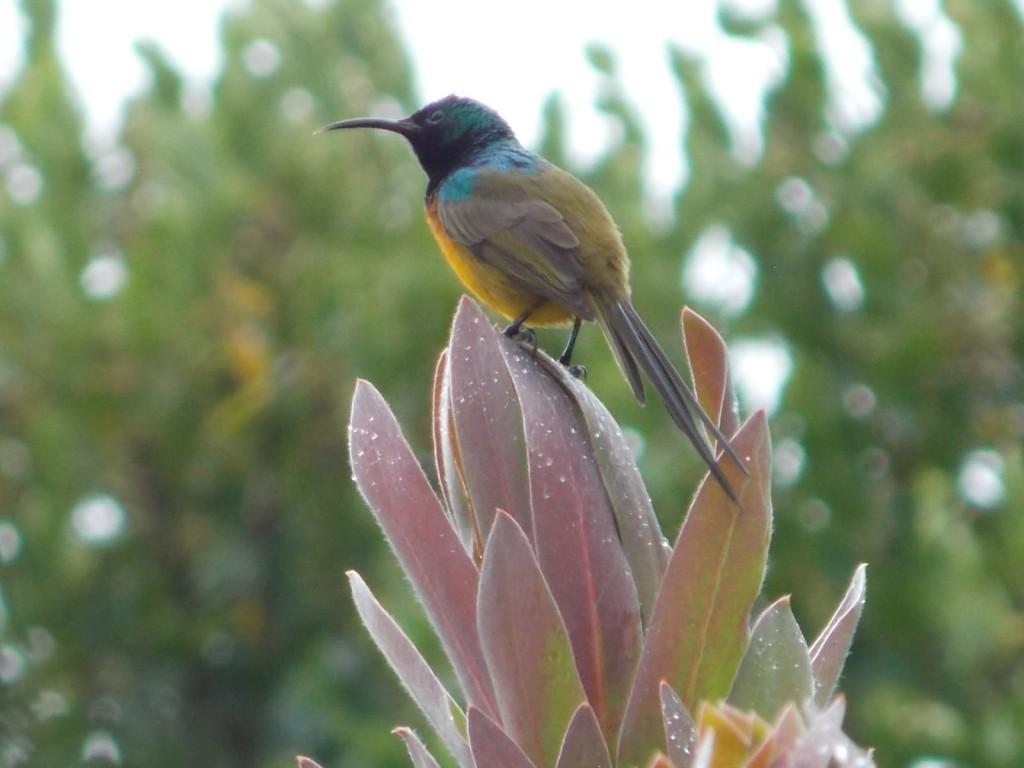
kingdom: Animalia
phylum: Chordata
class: Aves
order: Passeriformes
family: Nectariniidae
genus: Anthobaphes
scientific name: Anthobaphes violacea
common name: Orange-breasted sunbird
